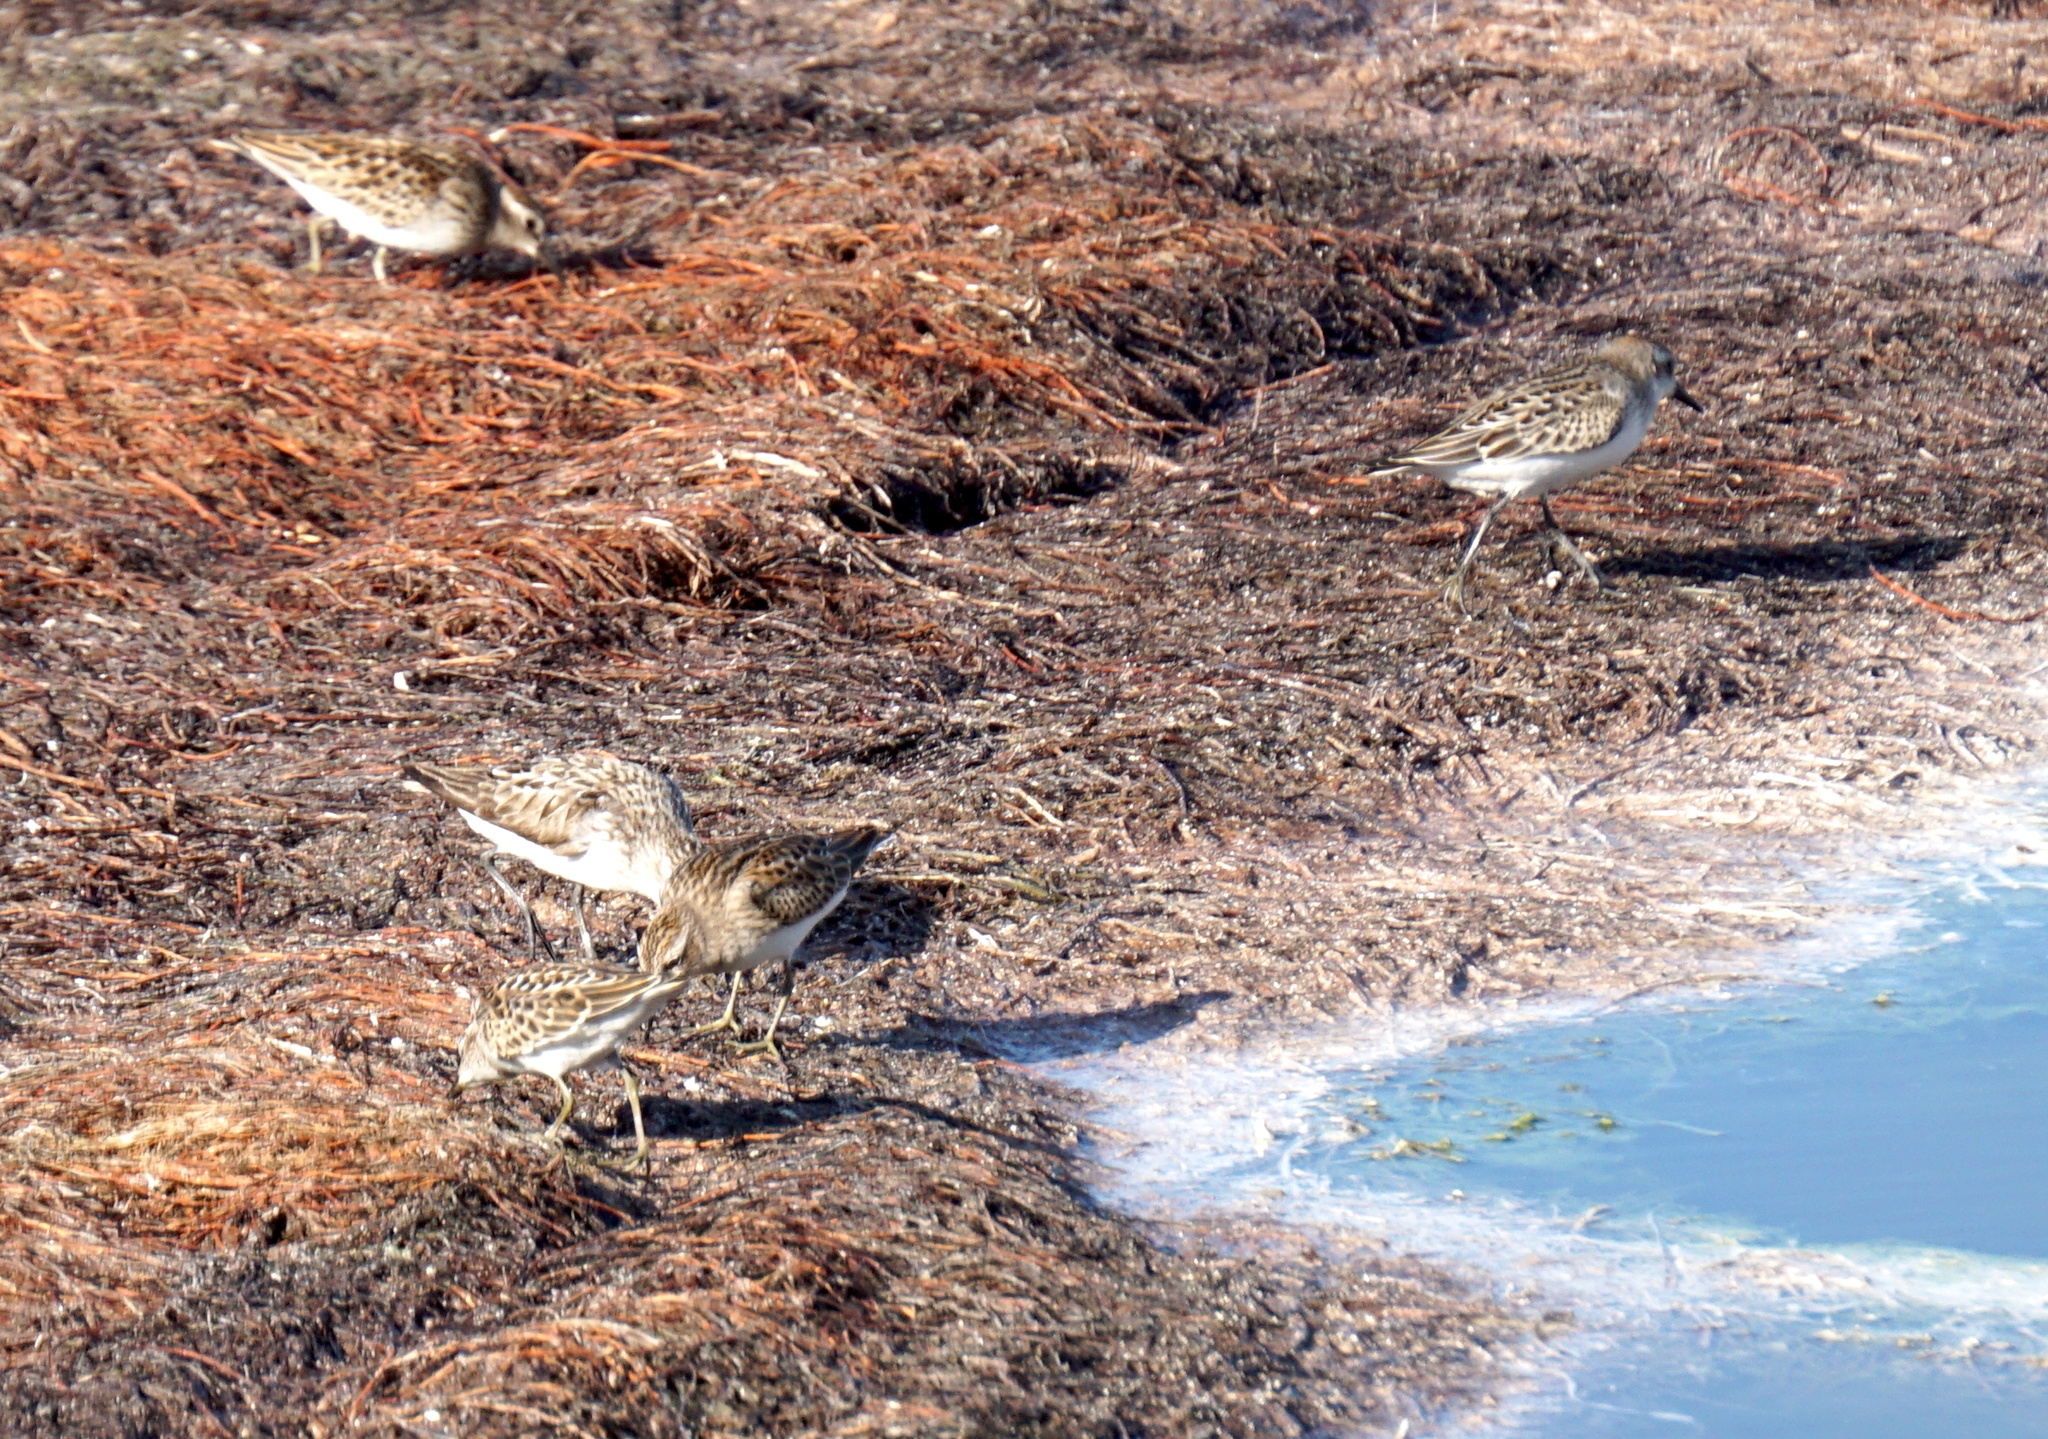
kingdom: Animalia
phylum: Chordata
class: Aves
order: Charadriiformes
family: Scolopacidae
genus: Calidris
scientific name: Calidris minutilla
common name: Least sandpiper
